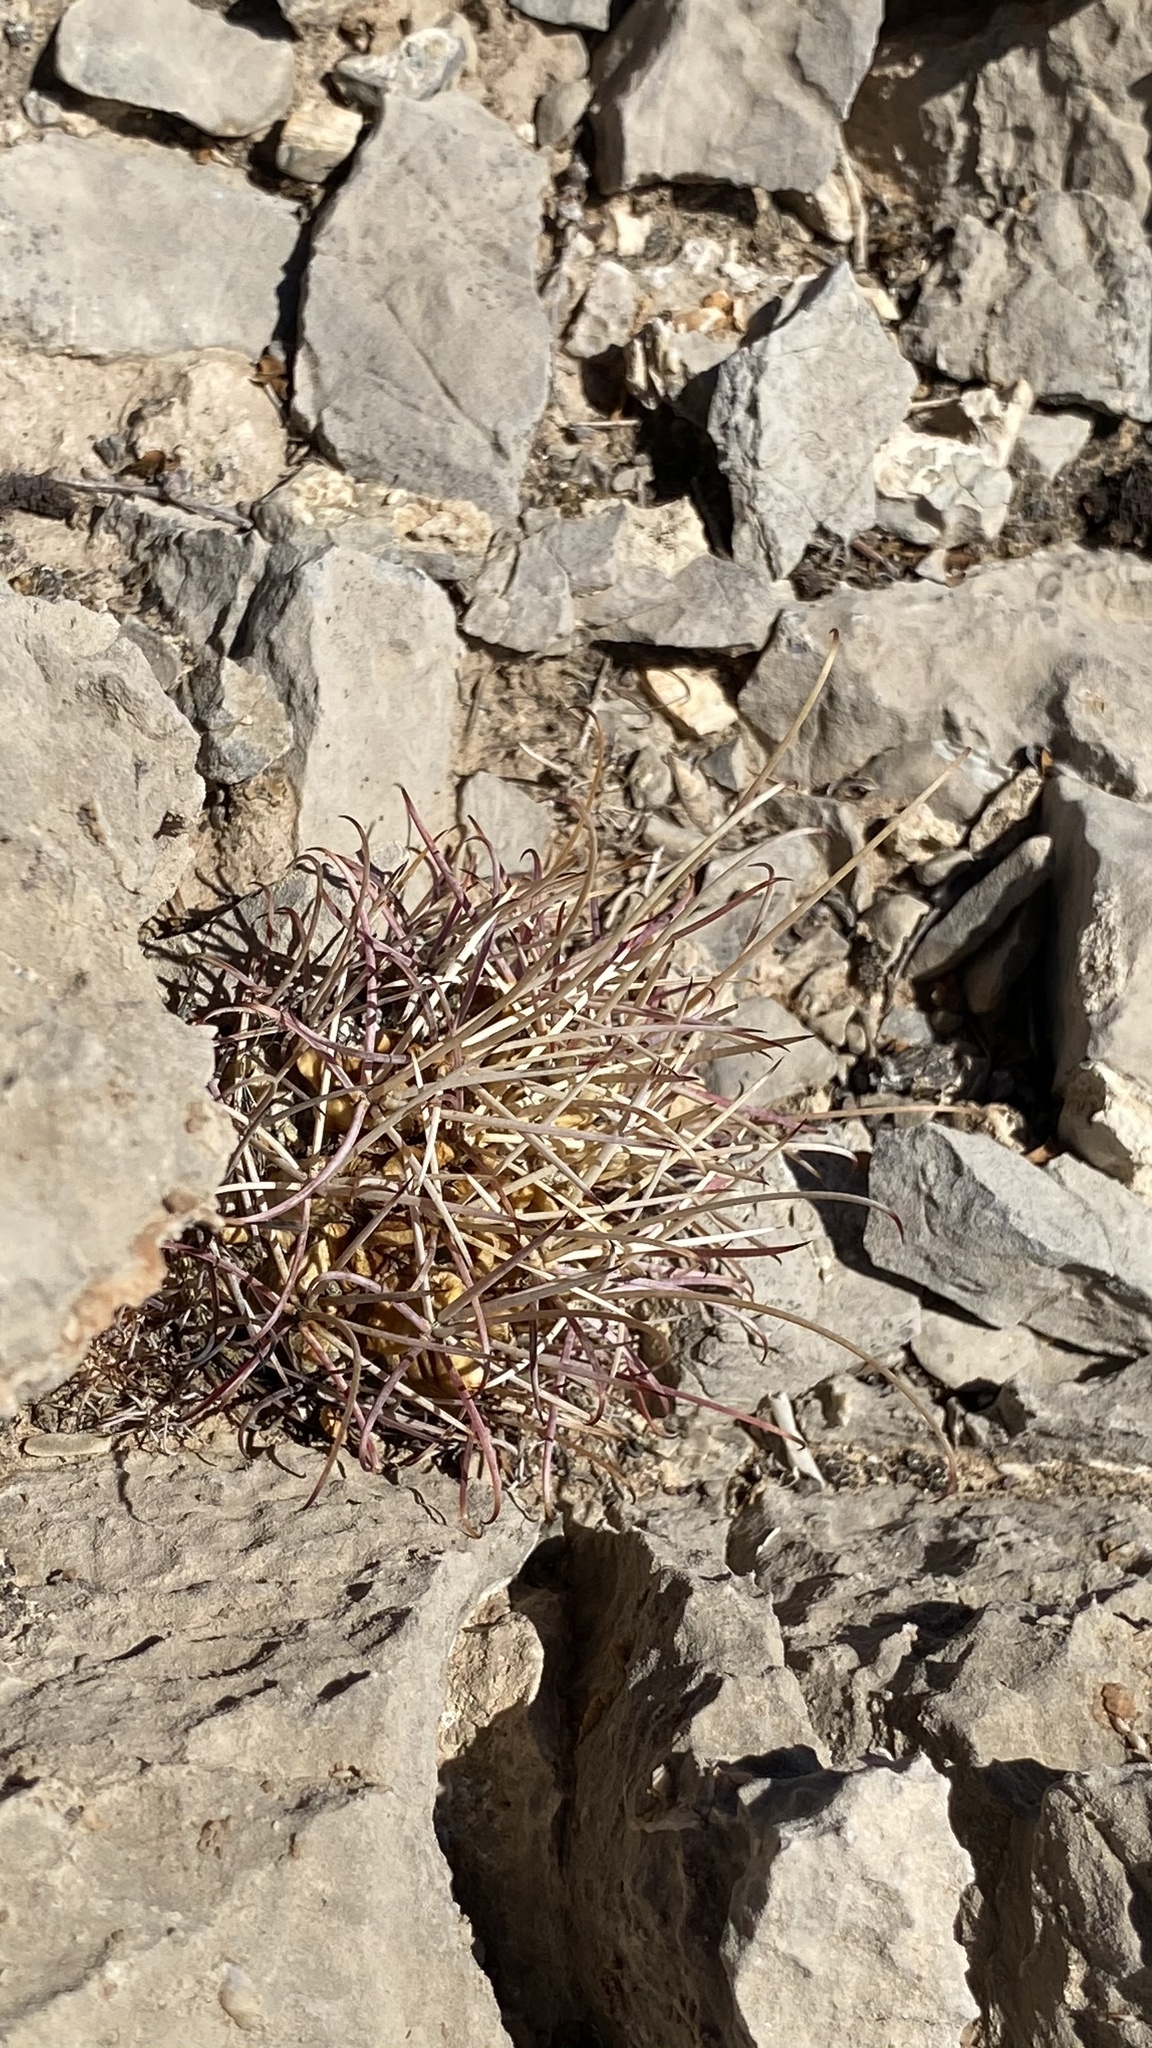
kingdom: Plantae
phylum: Tracheophyta
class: Magnoliopsida
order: Caryophyllales
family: Cactaceae
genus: Ferocactus
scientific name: Ferocactus uncinatus
